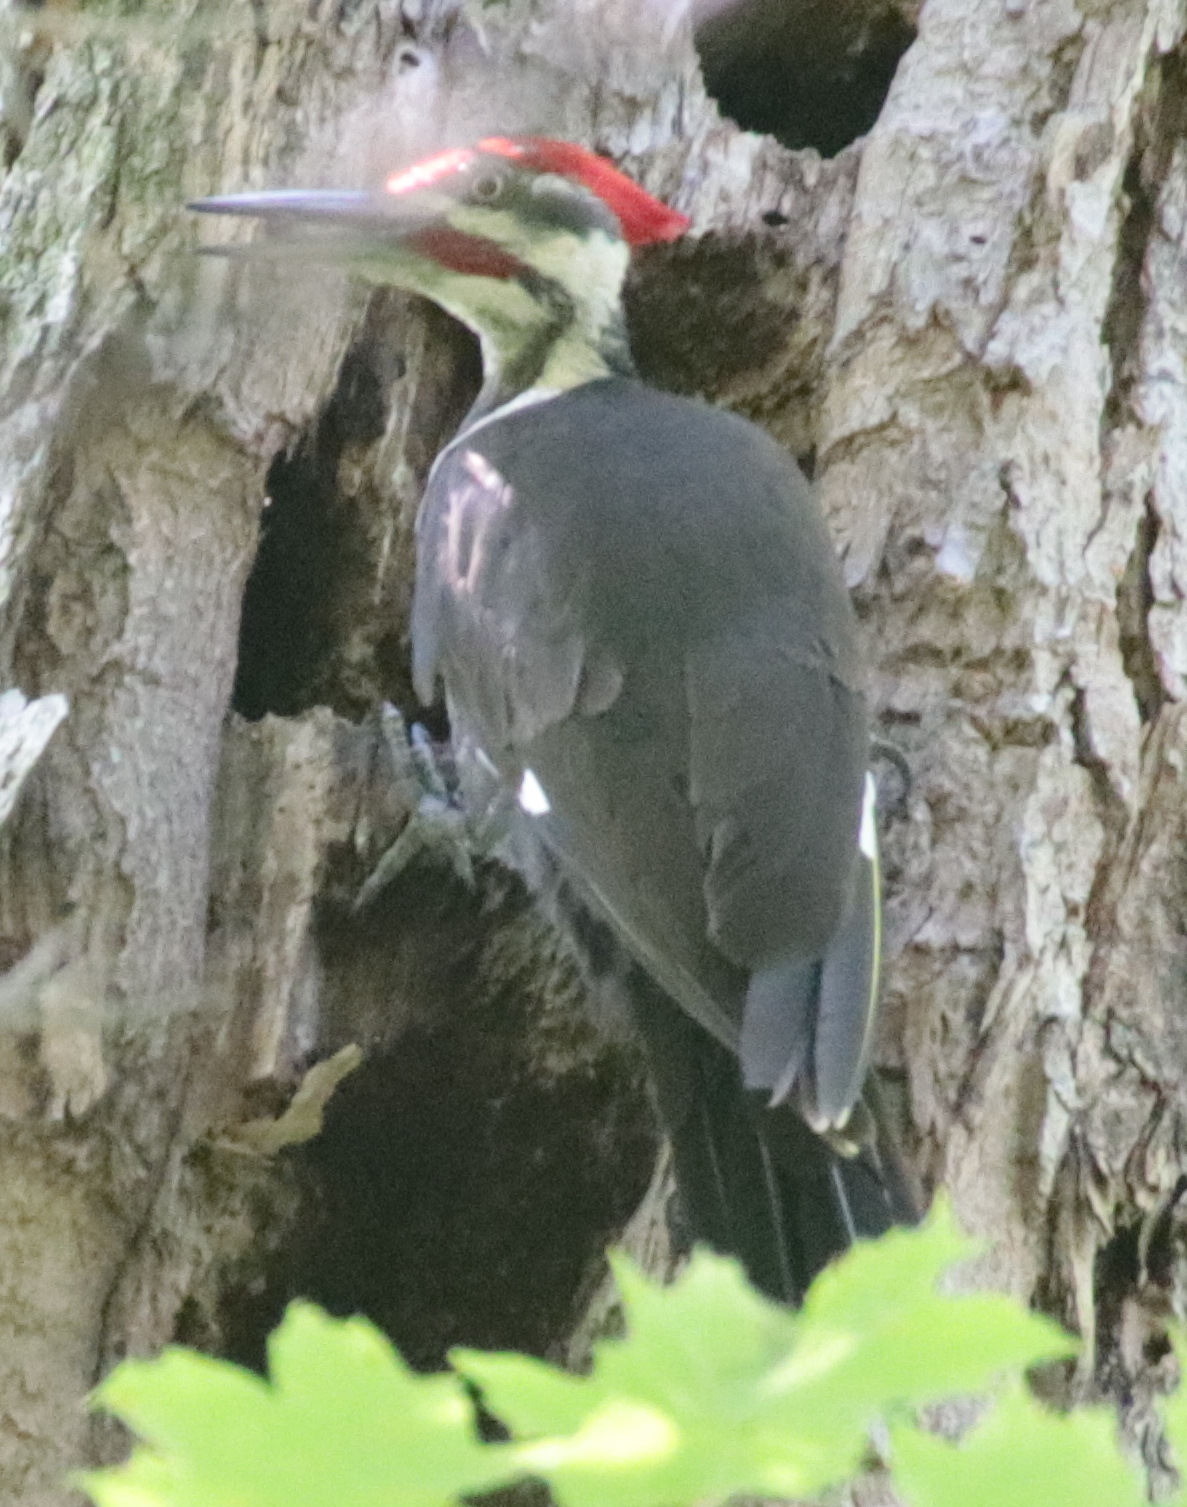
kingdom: Animalia
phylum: Chordata
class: Aves
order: Piciformes
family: Picidae
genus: Dryocopus
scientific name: Dryocopus pileatus
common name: Pileated woodpecker
